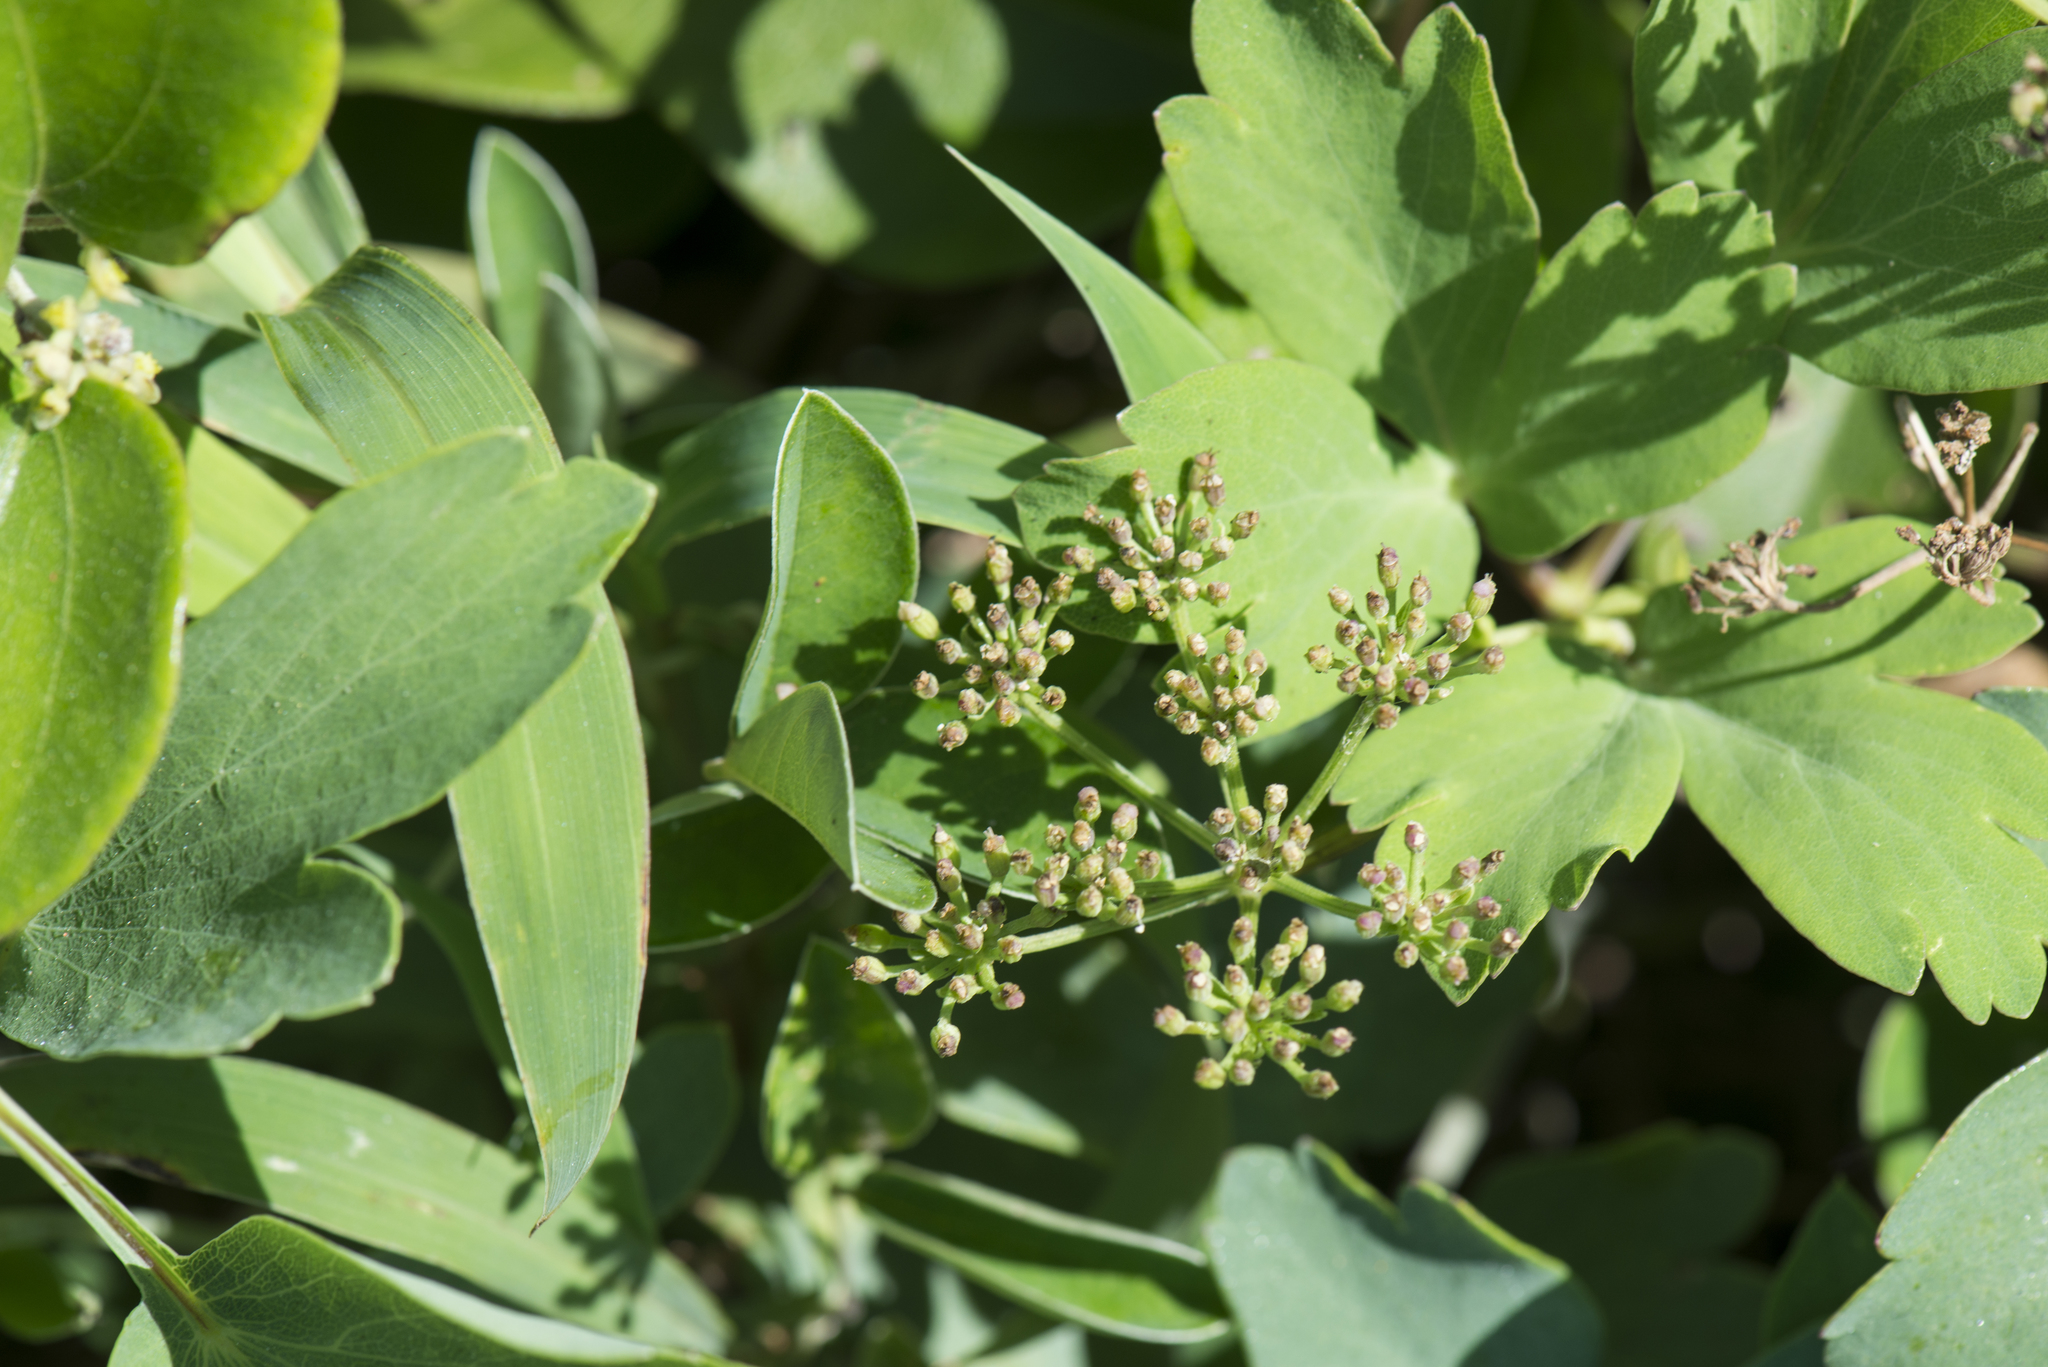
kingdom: Plantae
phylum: Tracheophyta
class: Magnoliopsida
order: Apiales
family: Apiaceae
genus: Peucedanum
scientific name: Peucedanum japonicum
